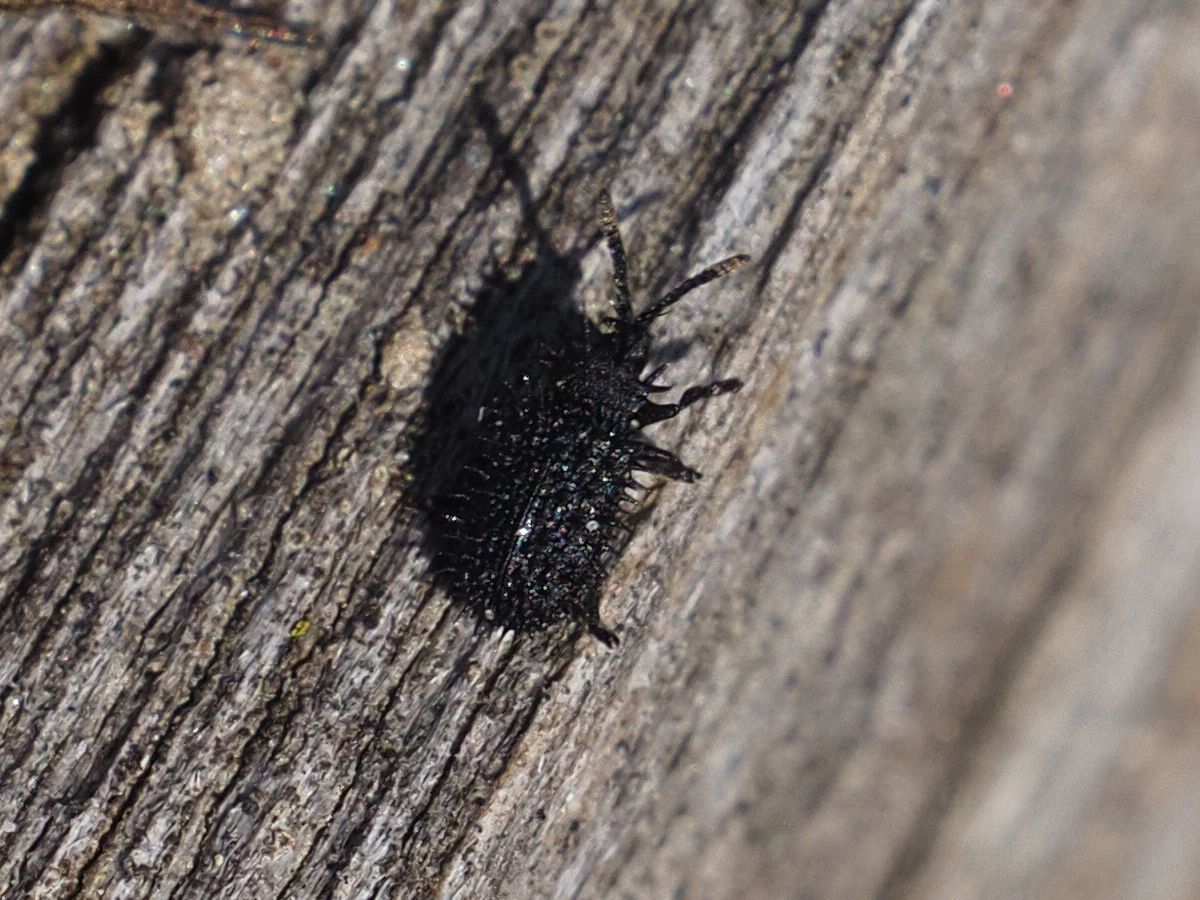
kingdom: Animalia
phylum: Arthropoda
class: Insecta
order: Coleoptera
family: Chrysomelidae
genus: Hispa
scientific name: Hispa atra
